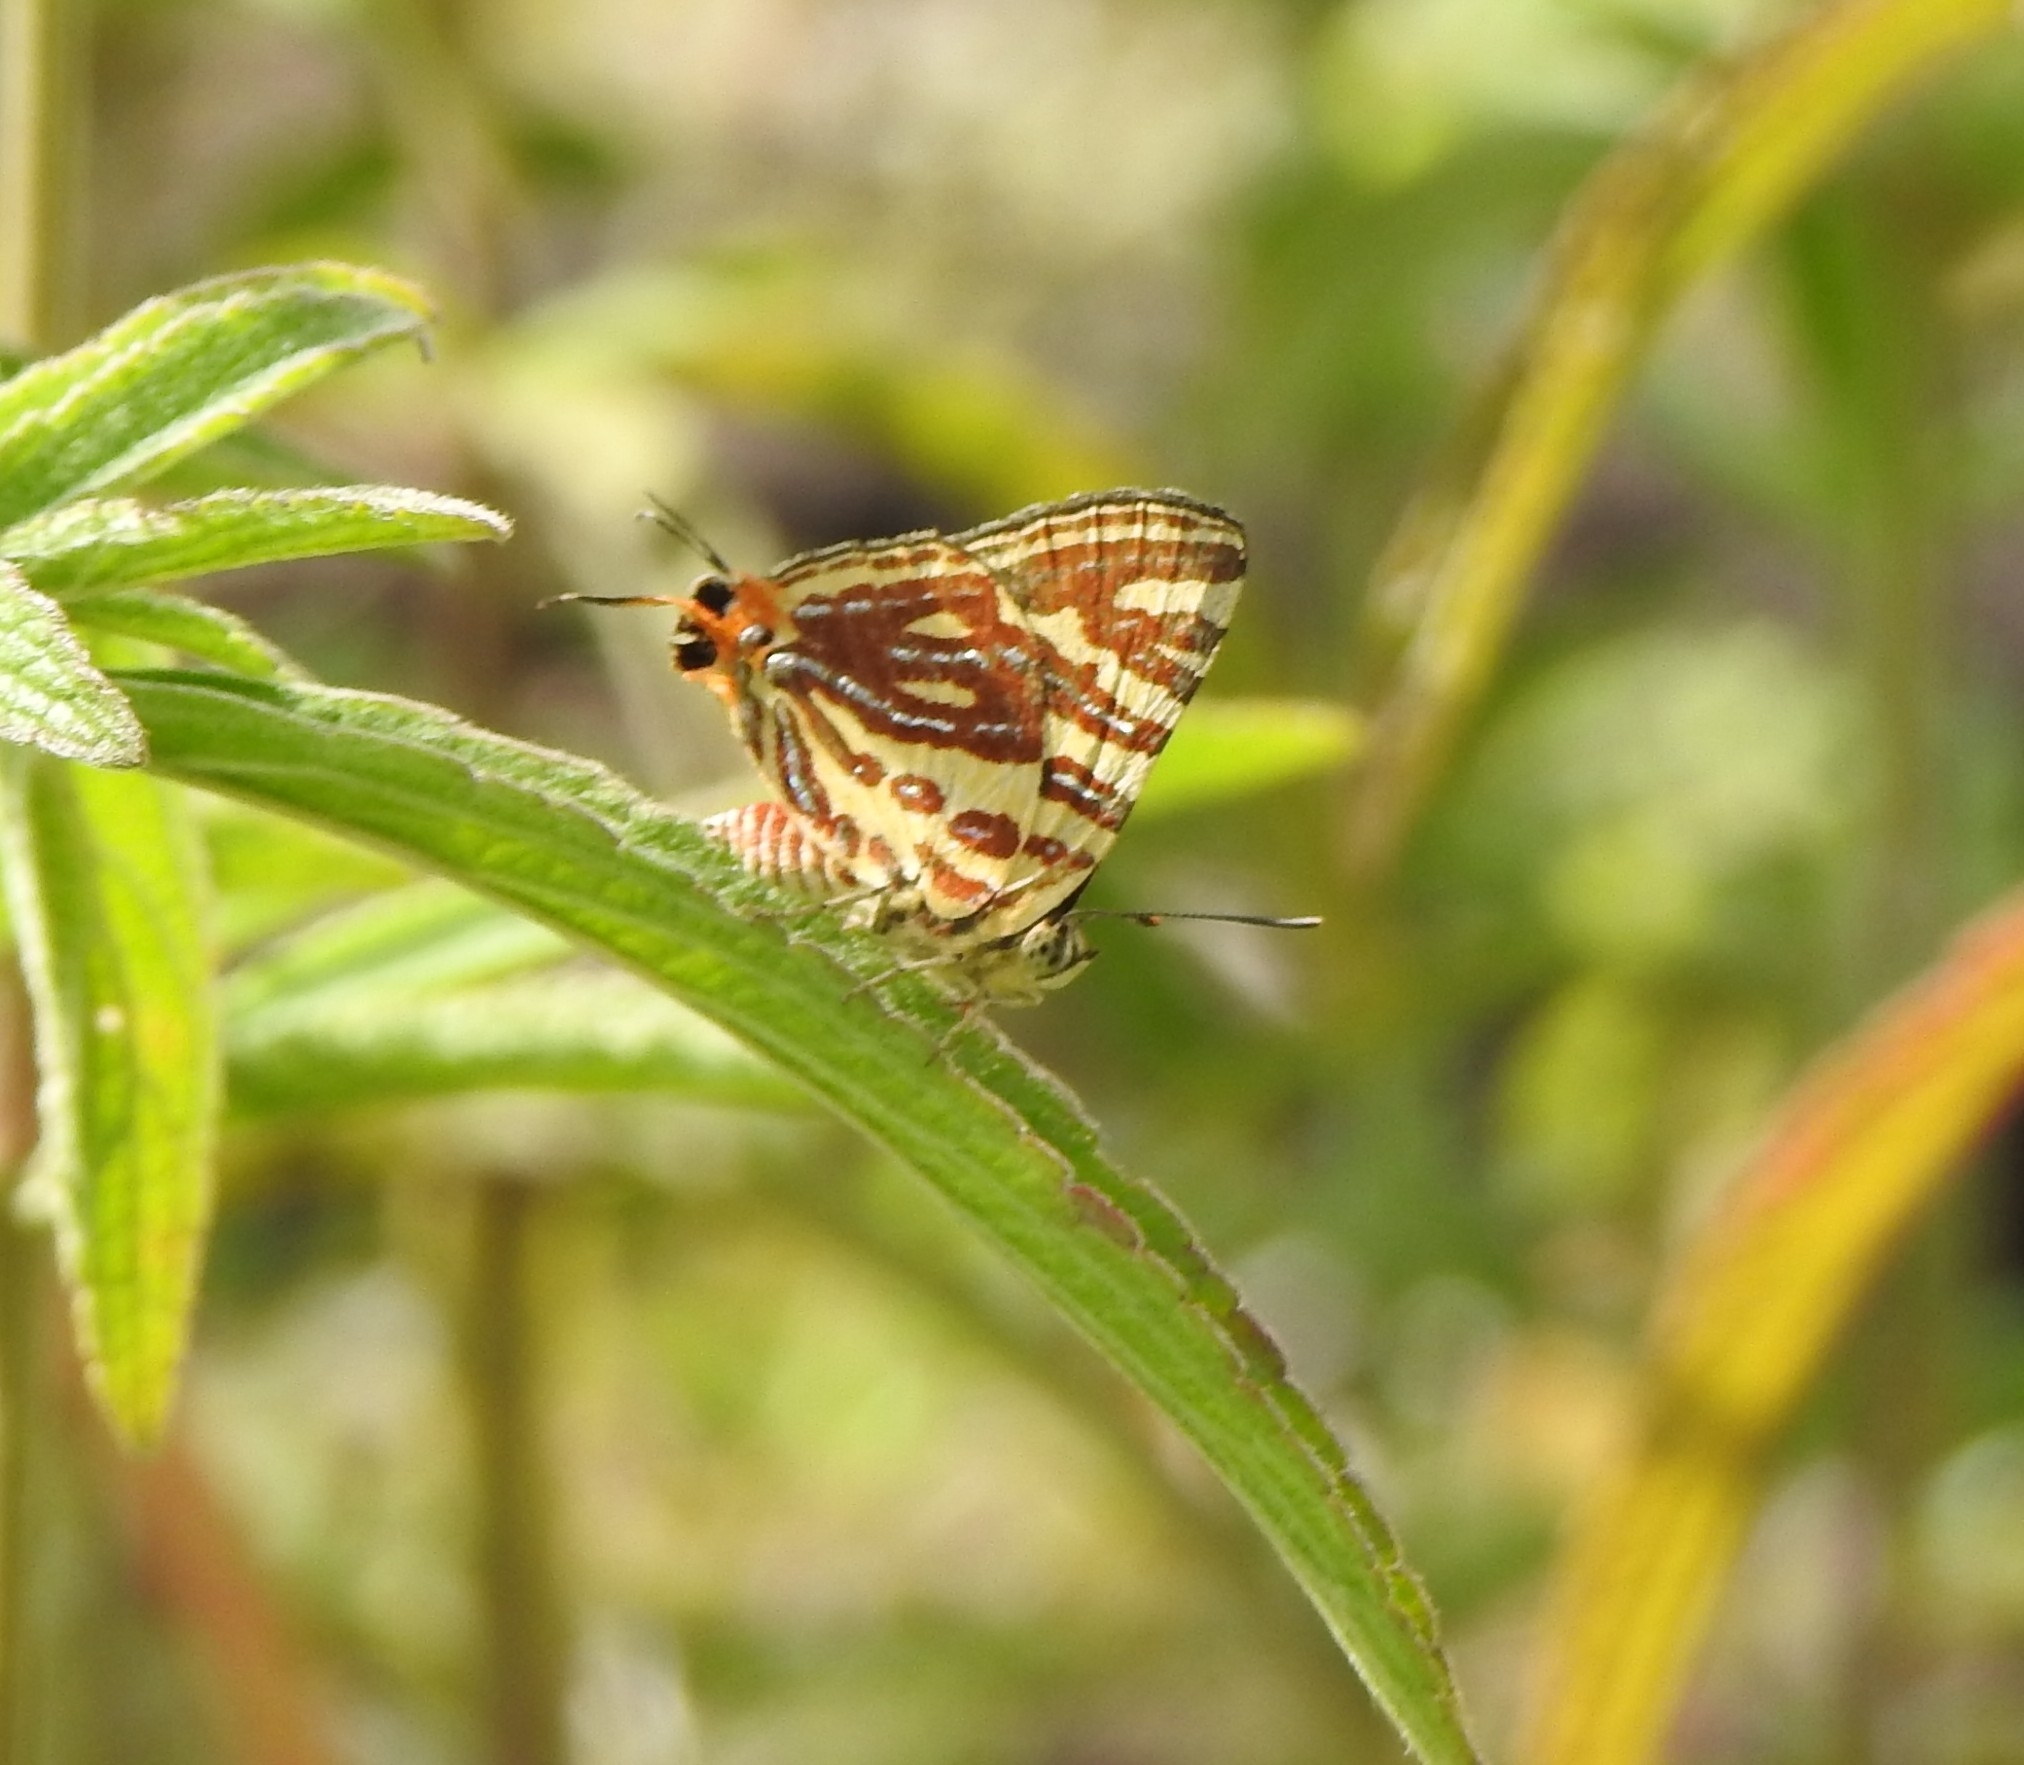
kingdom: Animalia
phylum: Arthropoda
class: Insecta
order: Lepidoptera
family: Lycaenidae
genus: Cigaritis
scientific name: Cigaritis lohita
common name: Long-banded silverline
